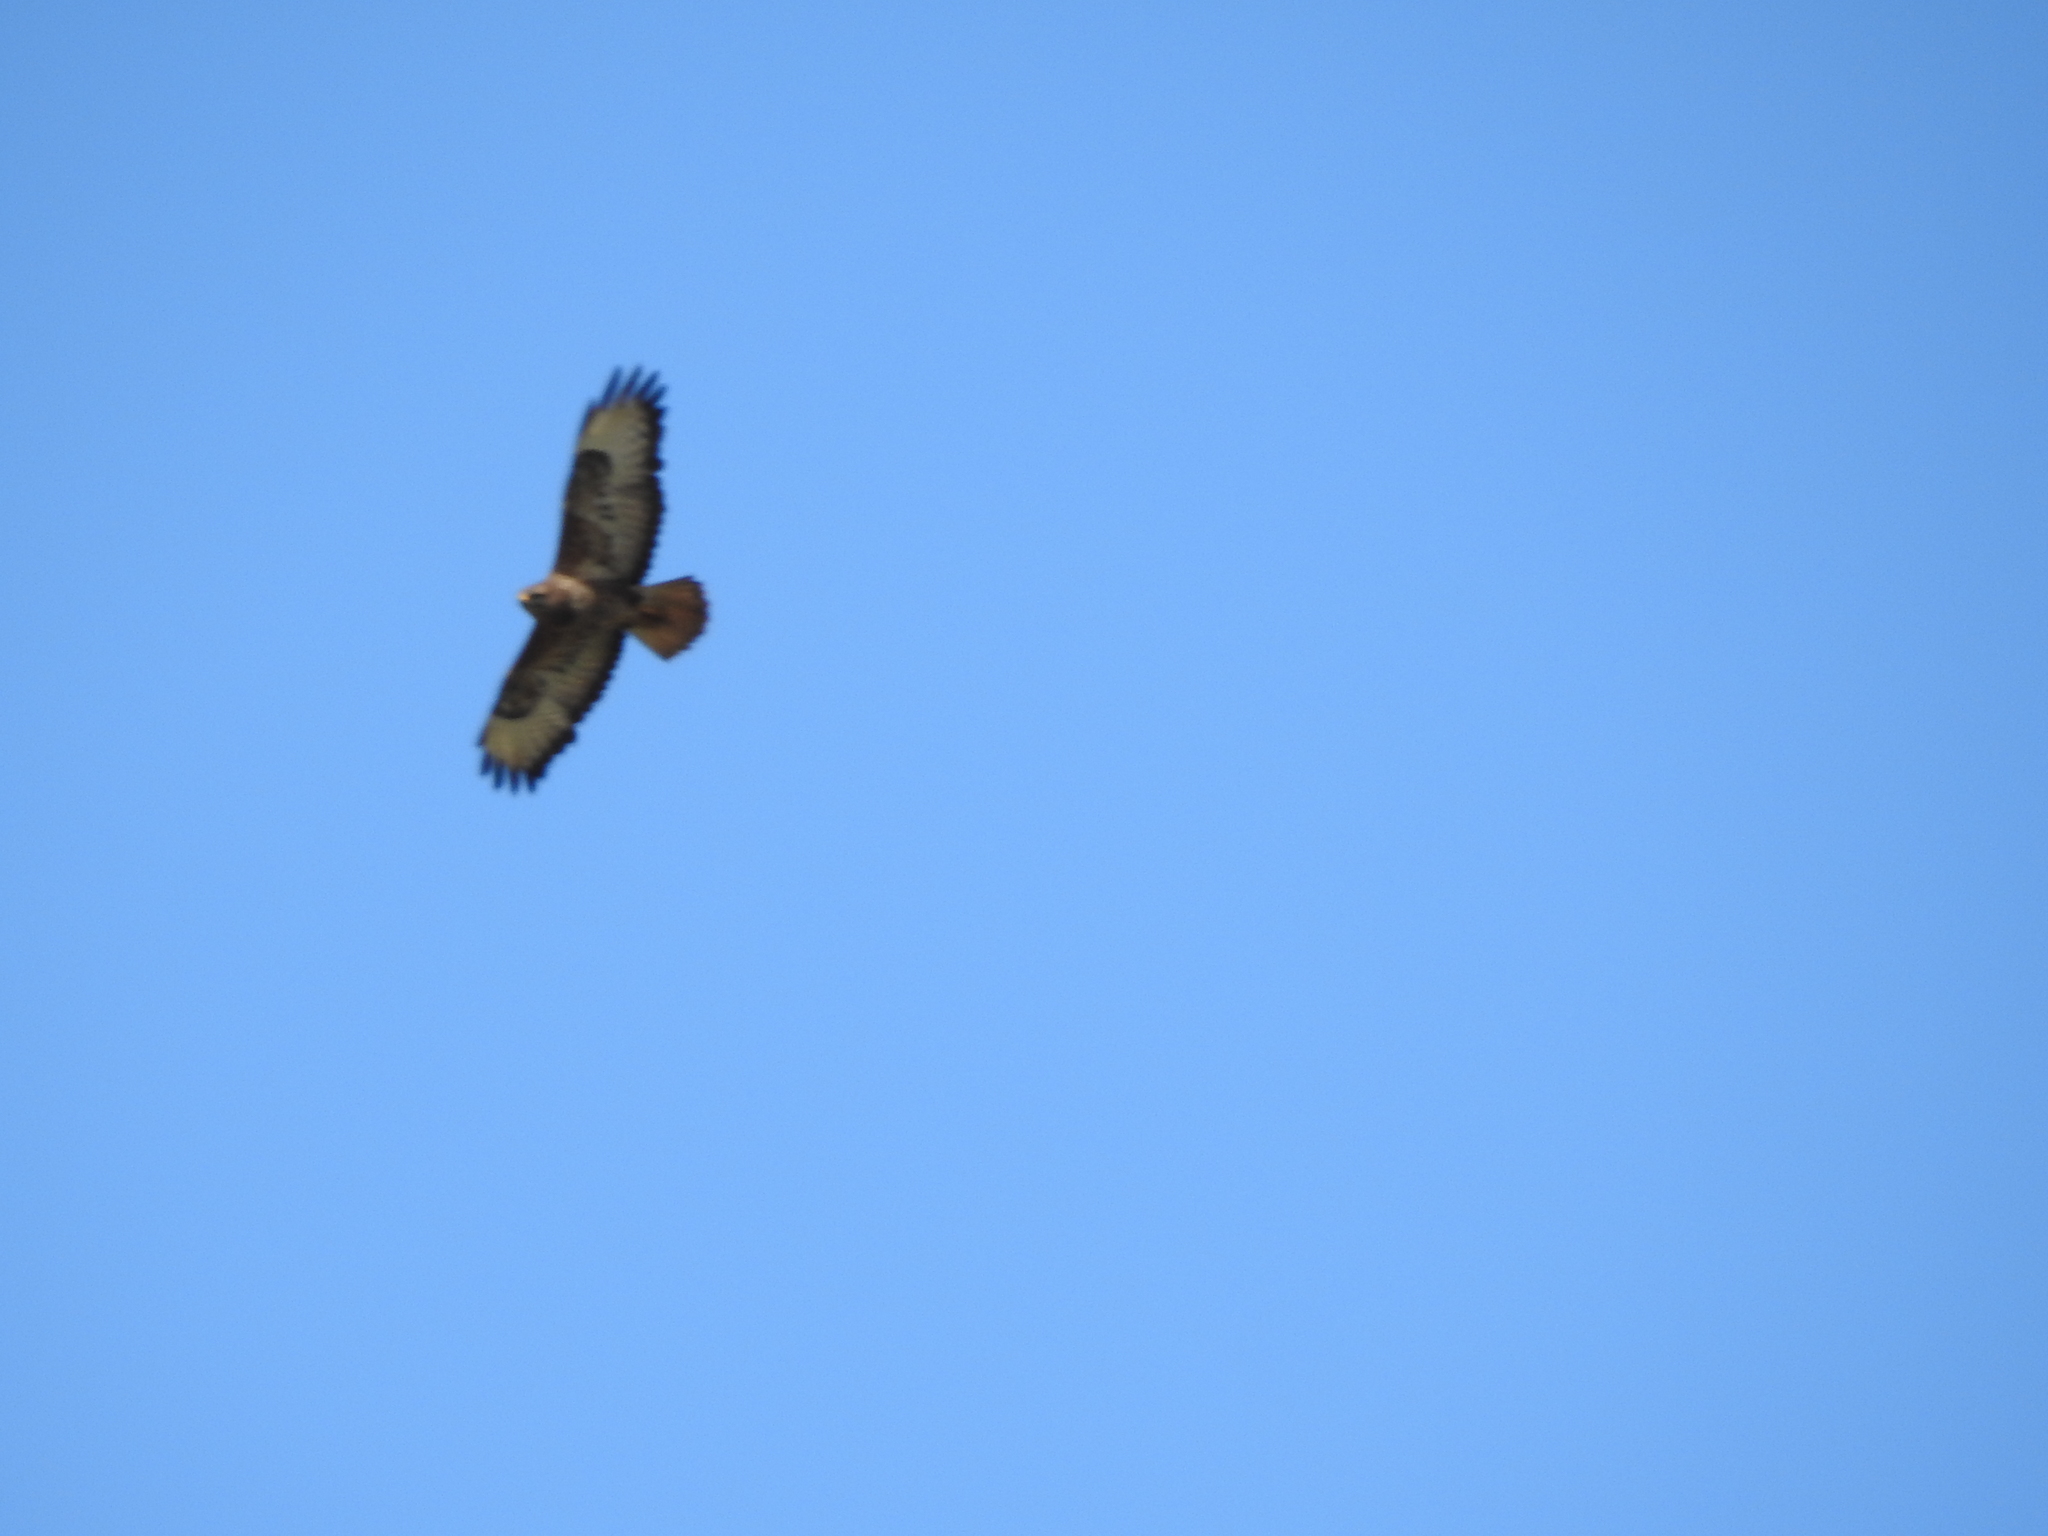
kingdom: Animalia
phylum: Chordata
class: Aves
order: Accipitriformes
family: Accipitridae
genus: Buteo
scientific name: Buteo buteo
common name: Common buzzard
